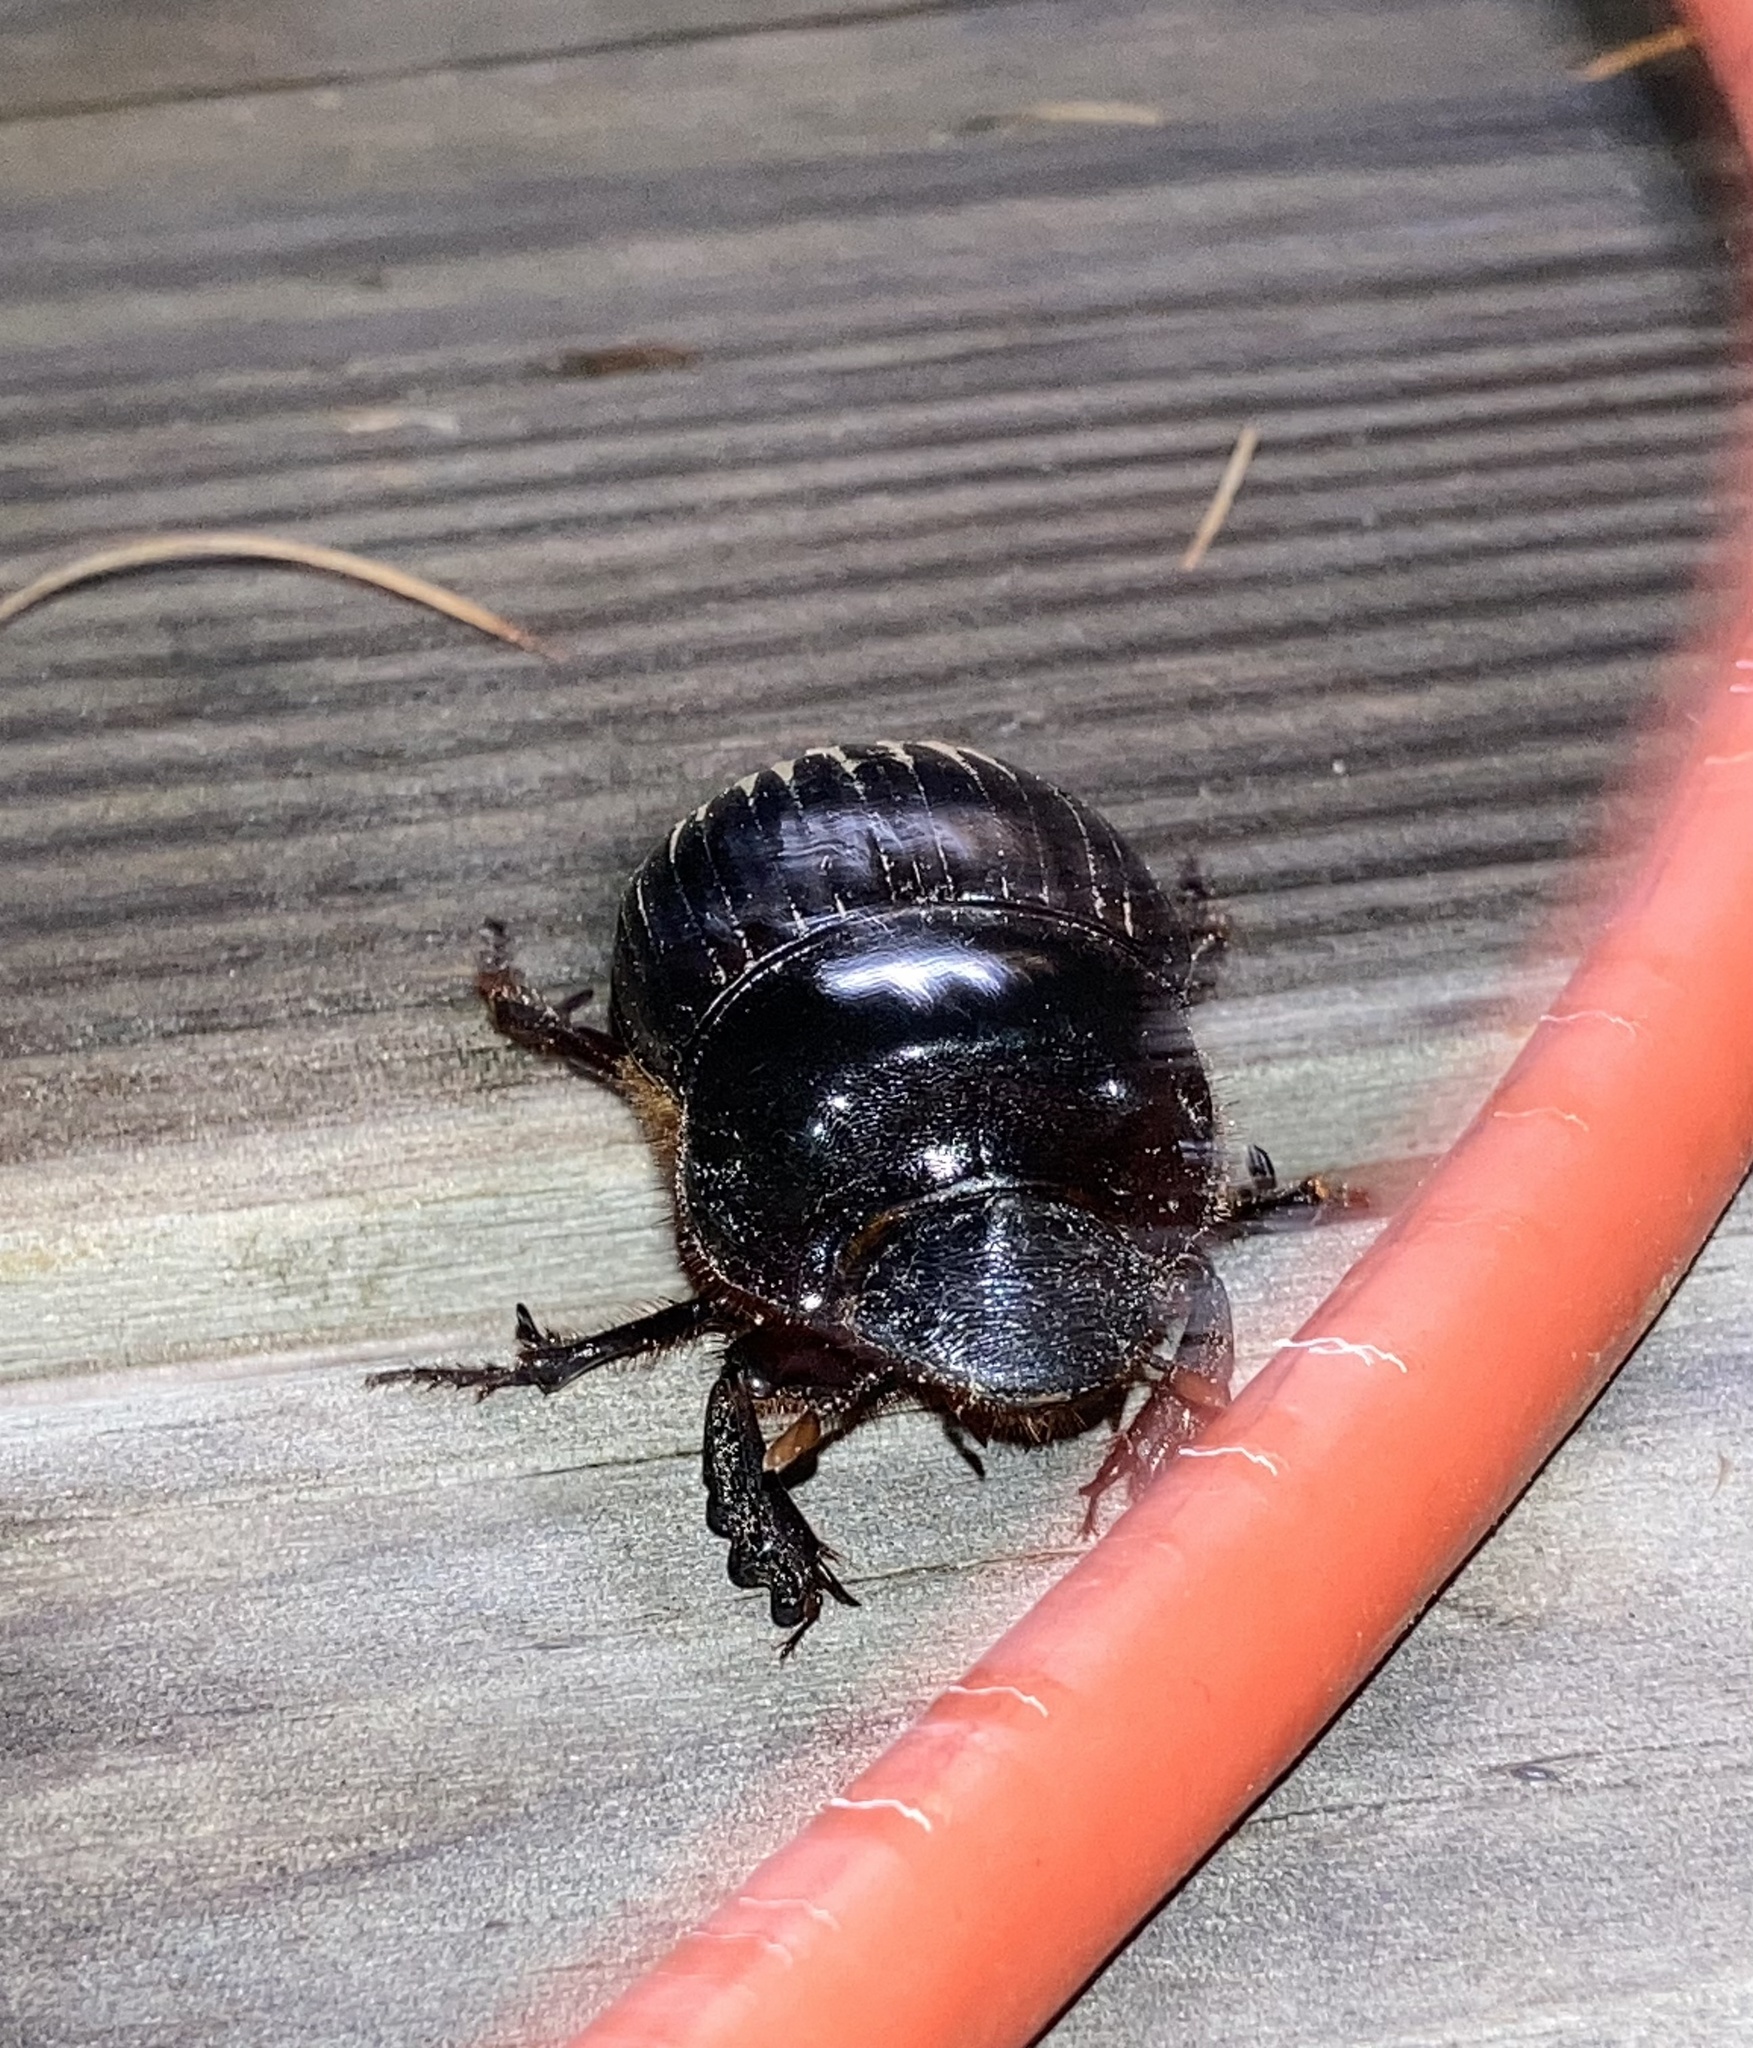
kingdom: Animalia
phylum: Arthropoda
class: Insecta
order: Coleoptera
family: Scarabaeidae
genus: Dichotomius
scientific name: Dichotomius carolinus
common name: Carolina copris
